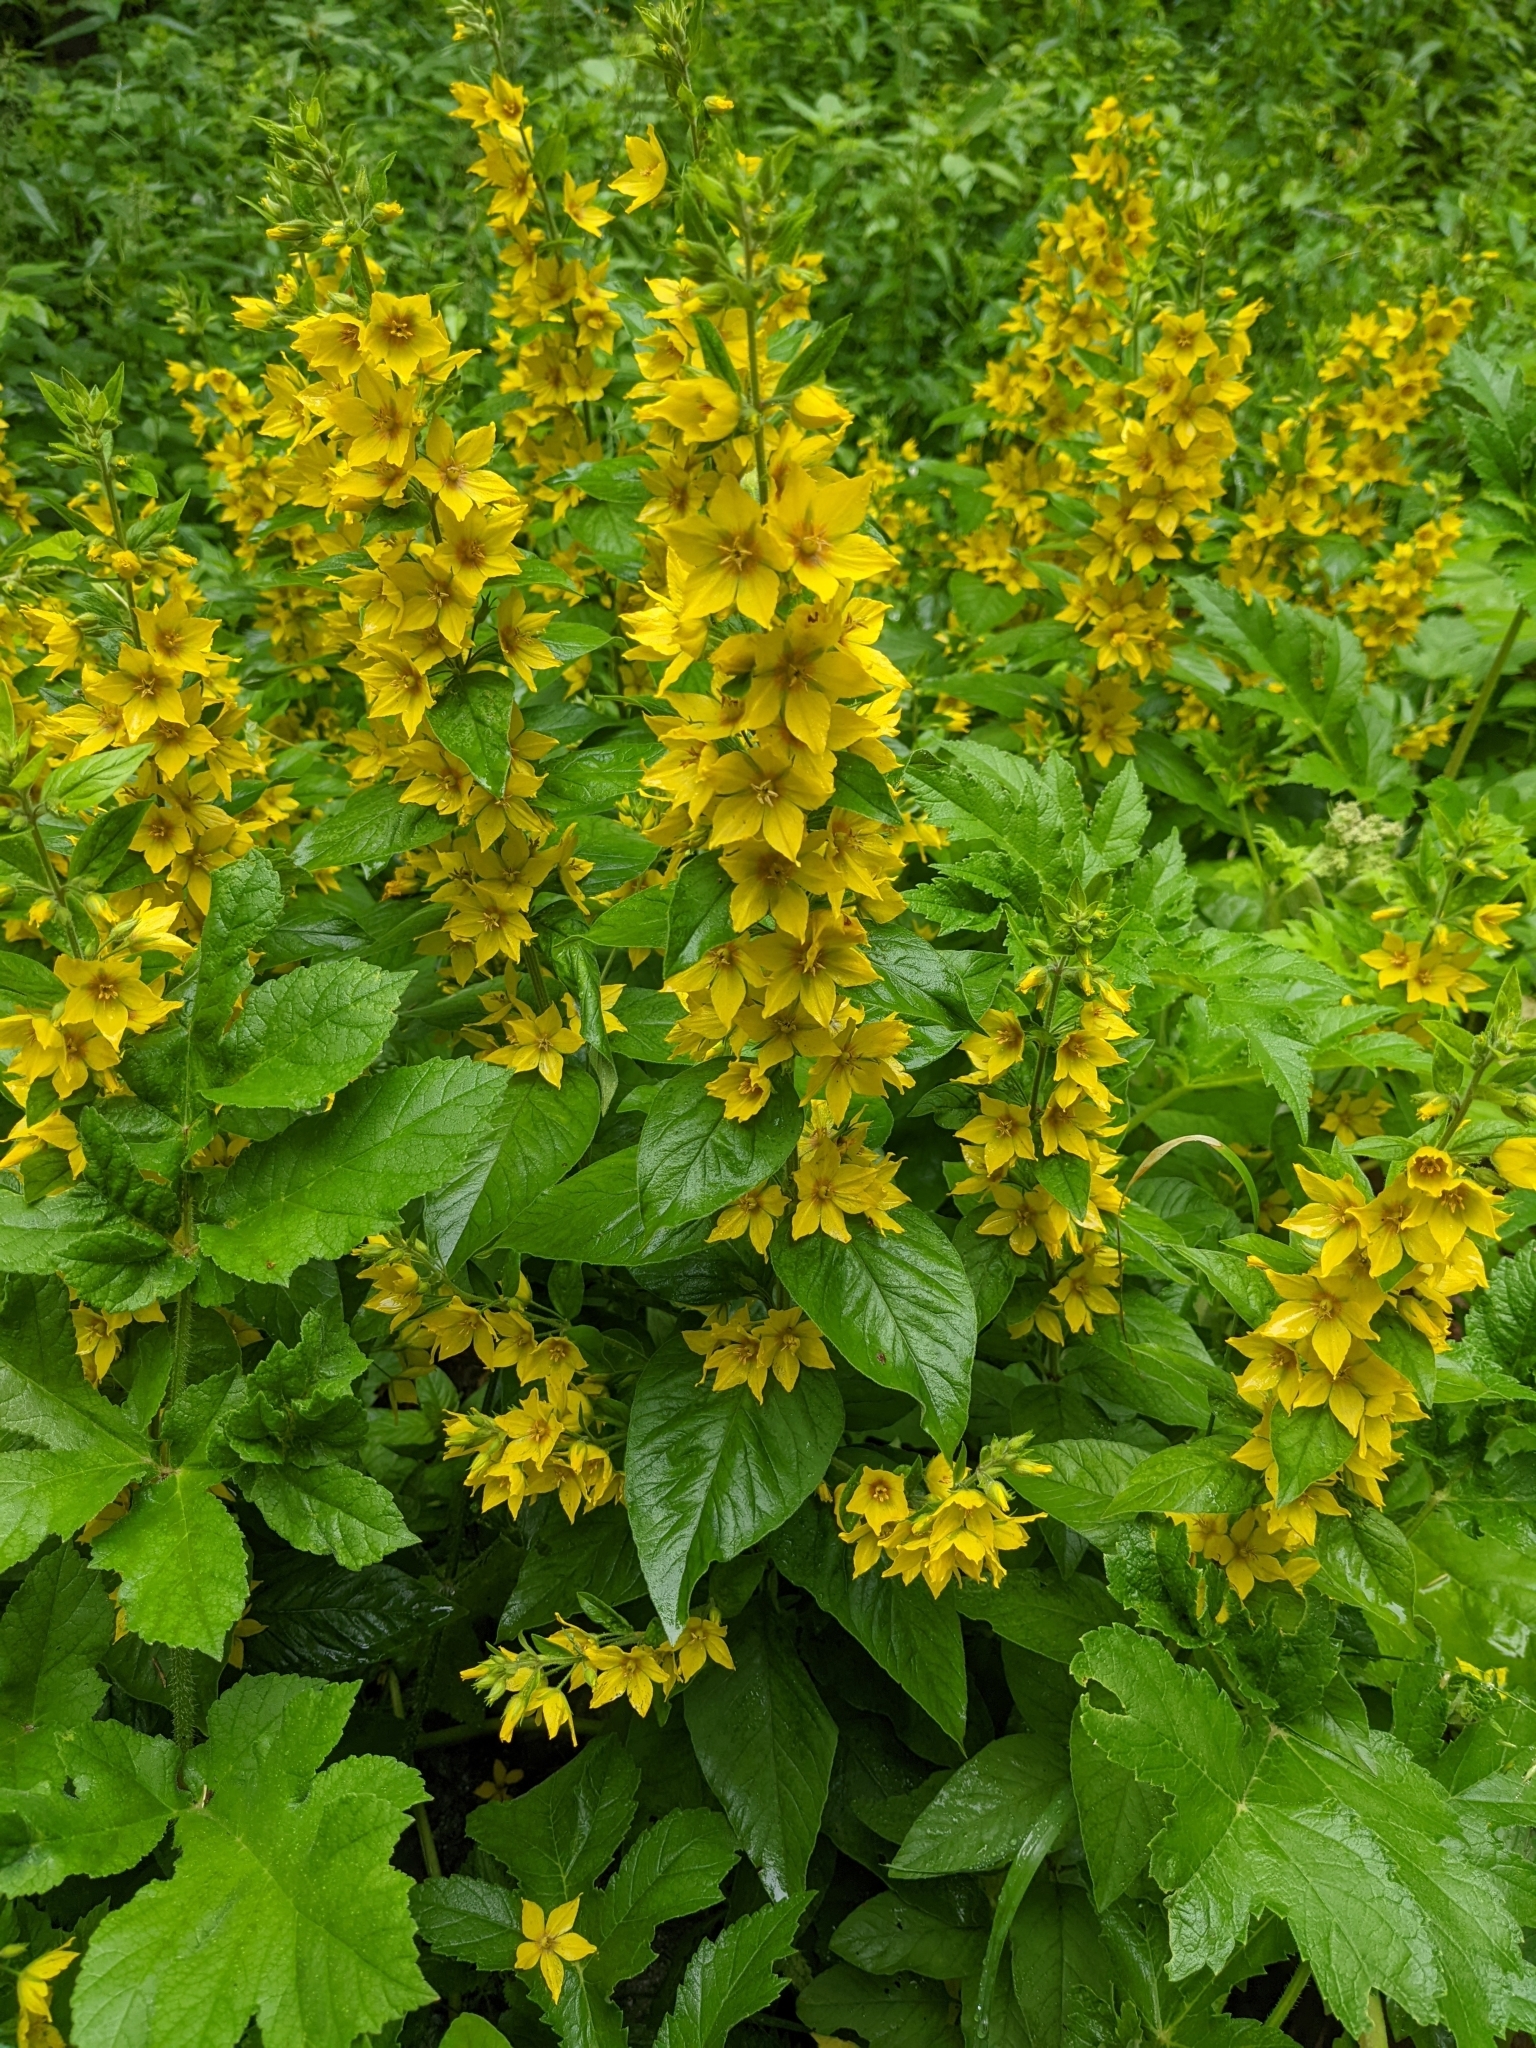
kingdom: Plantae
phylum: Tracheophyta
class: Magnoliopsida
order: Ericales
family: Primulaceae
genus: Lysimachia
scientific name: Lysimachia punctata
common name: Dotted loosestrife
